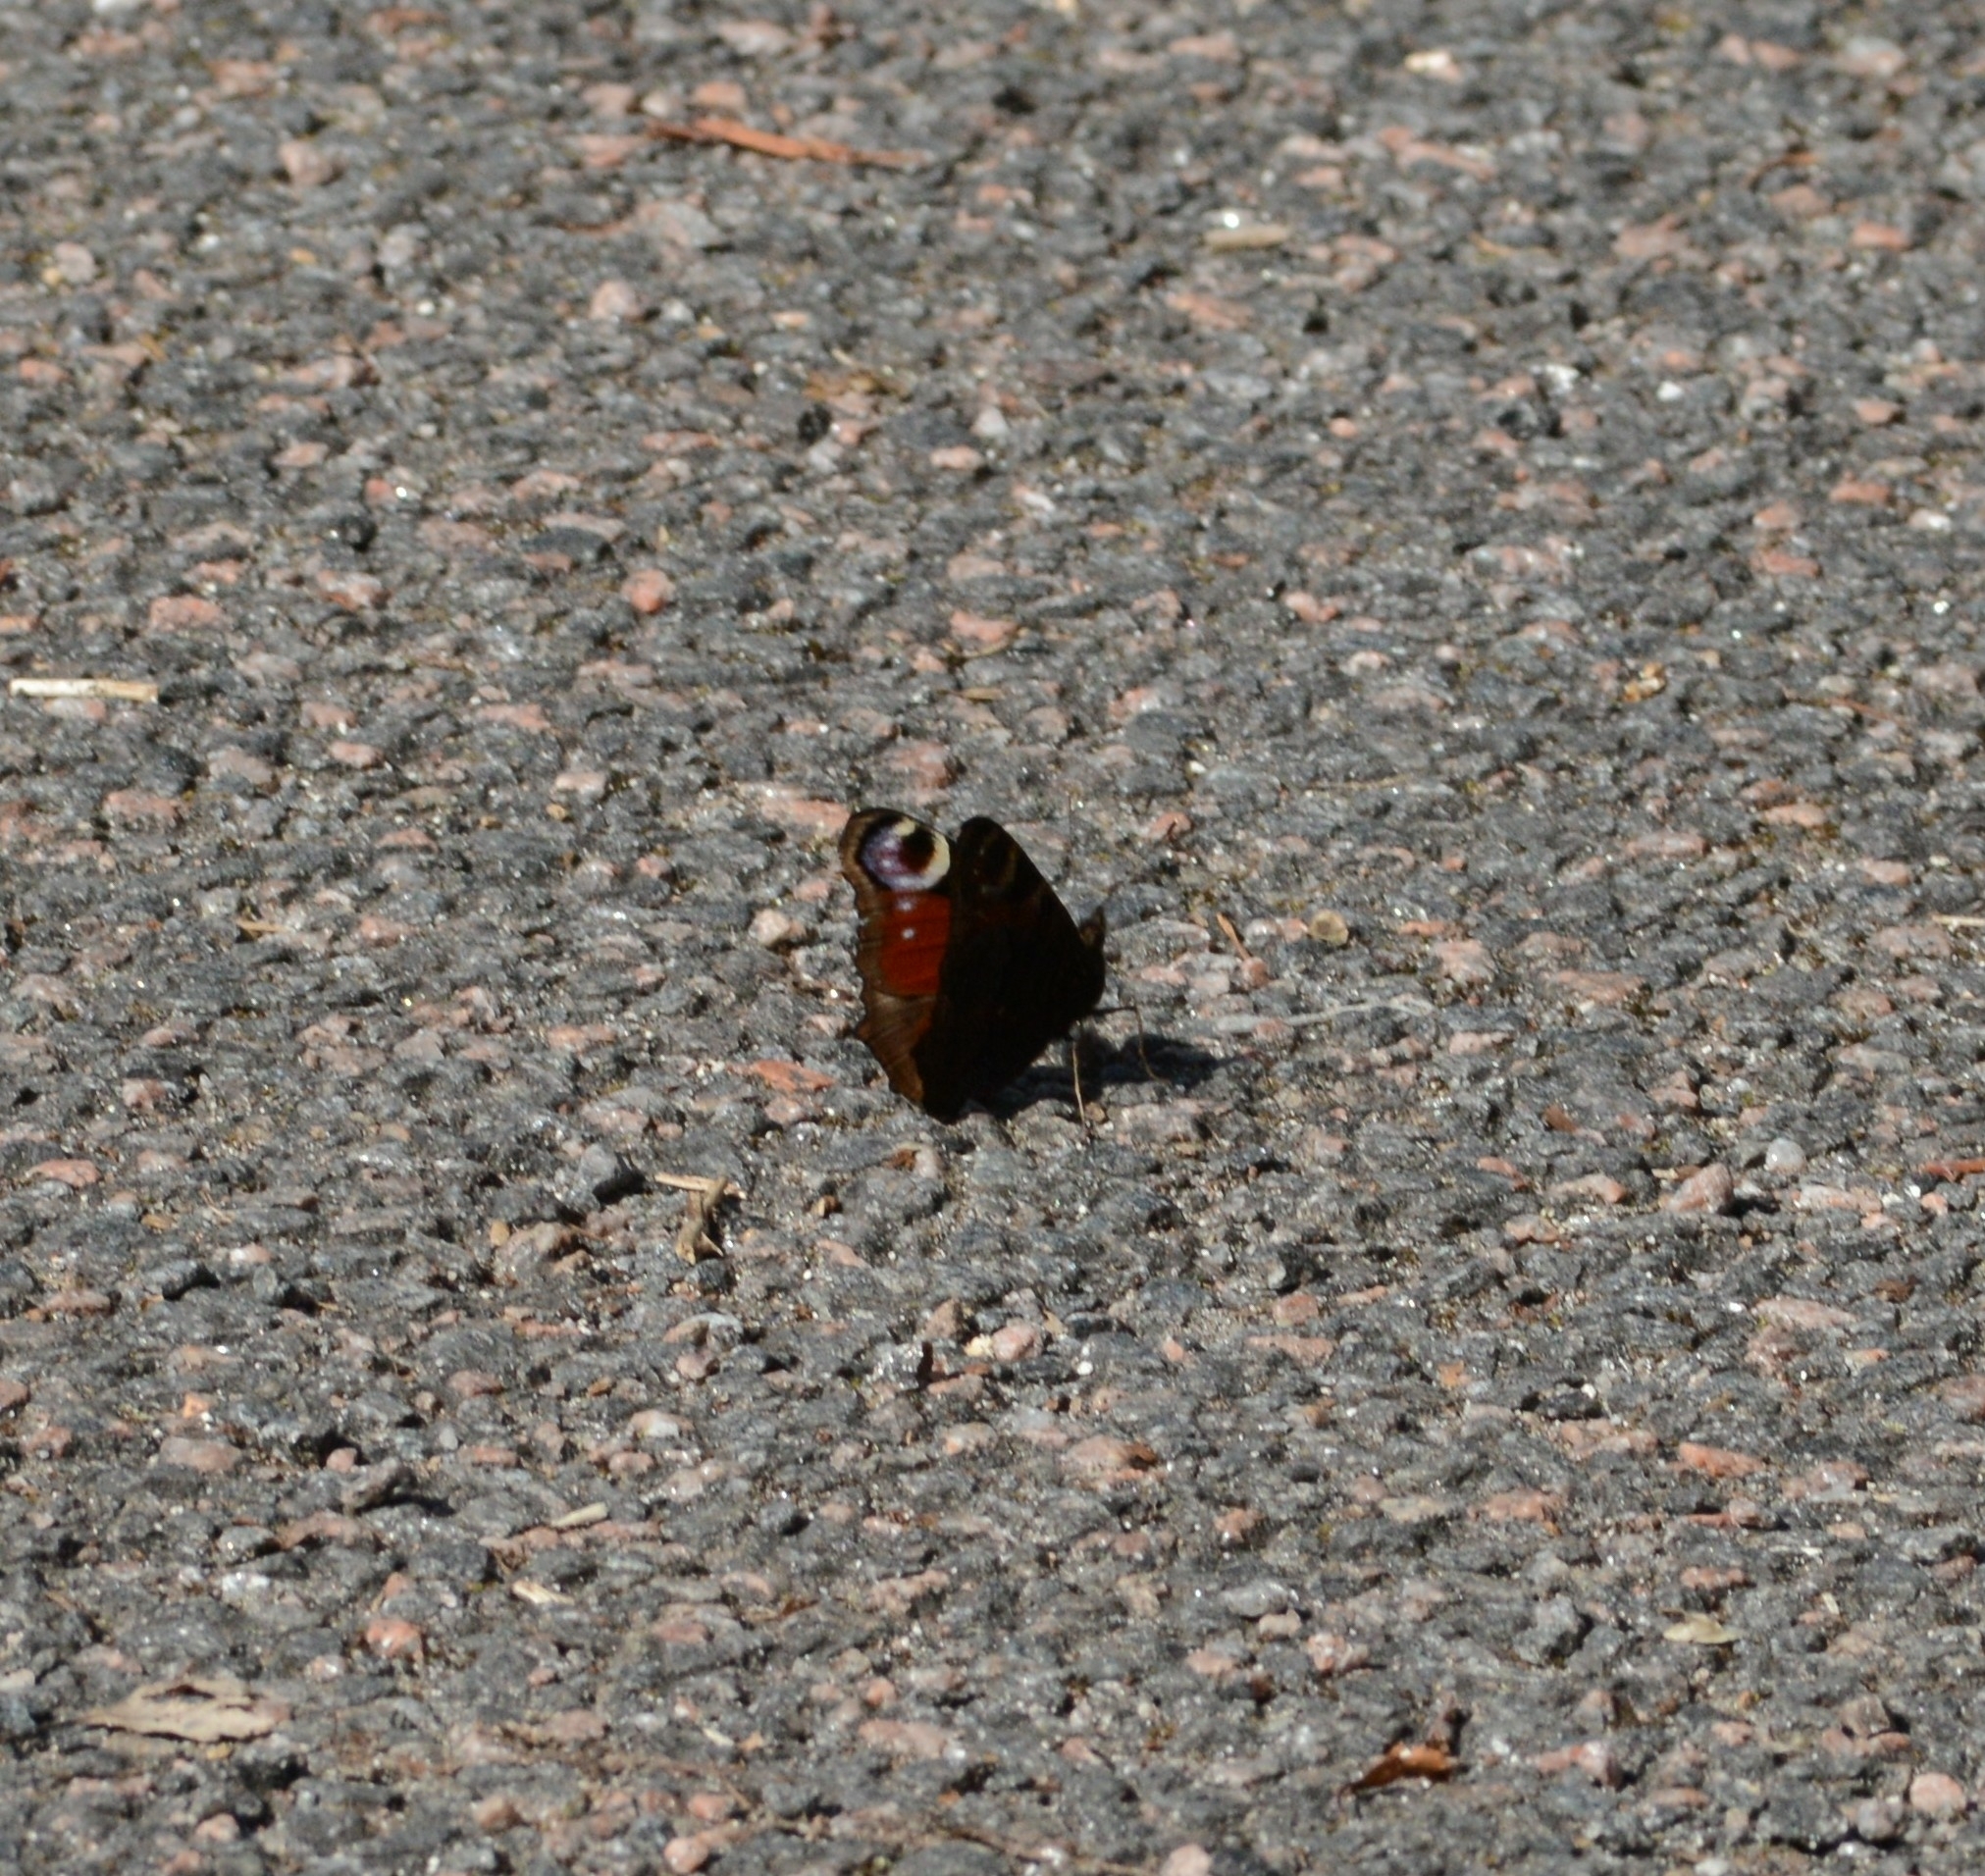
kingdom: Animalia
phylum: Arthropoda
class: Insecta
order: Lepidoptera
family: Nymphalidae
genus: Aglais
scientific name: Aglais io
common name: Peacock
